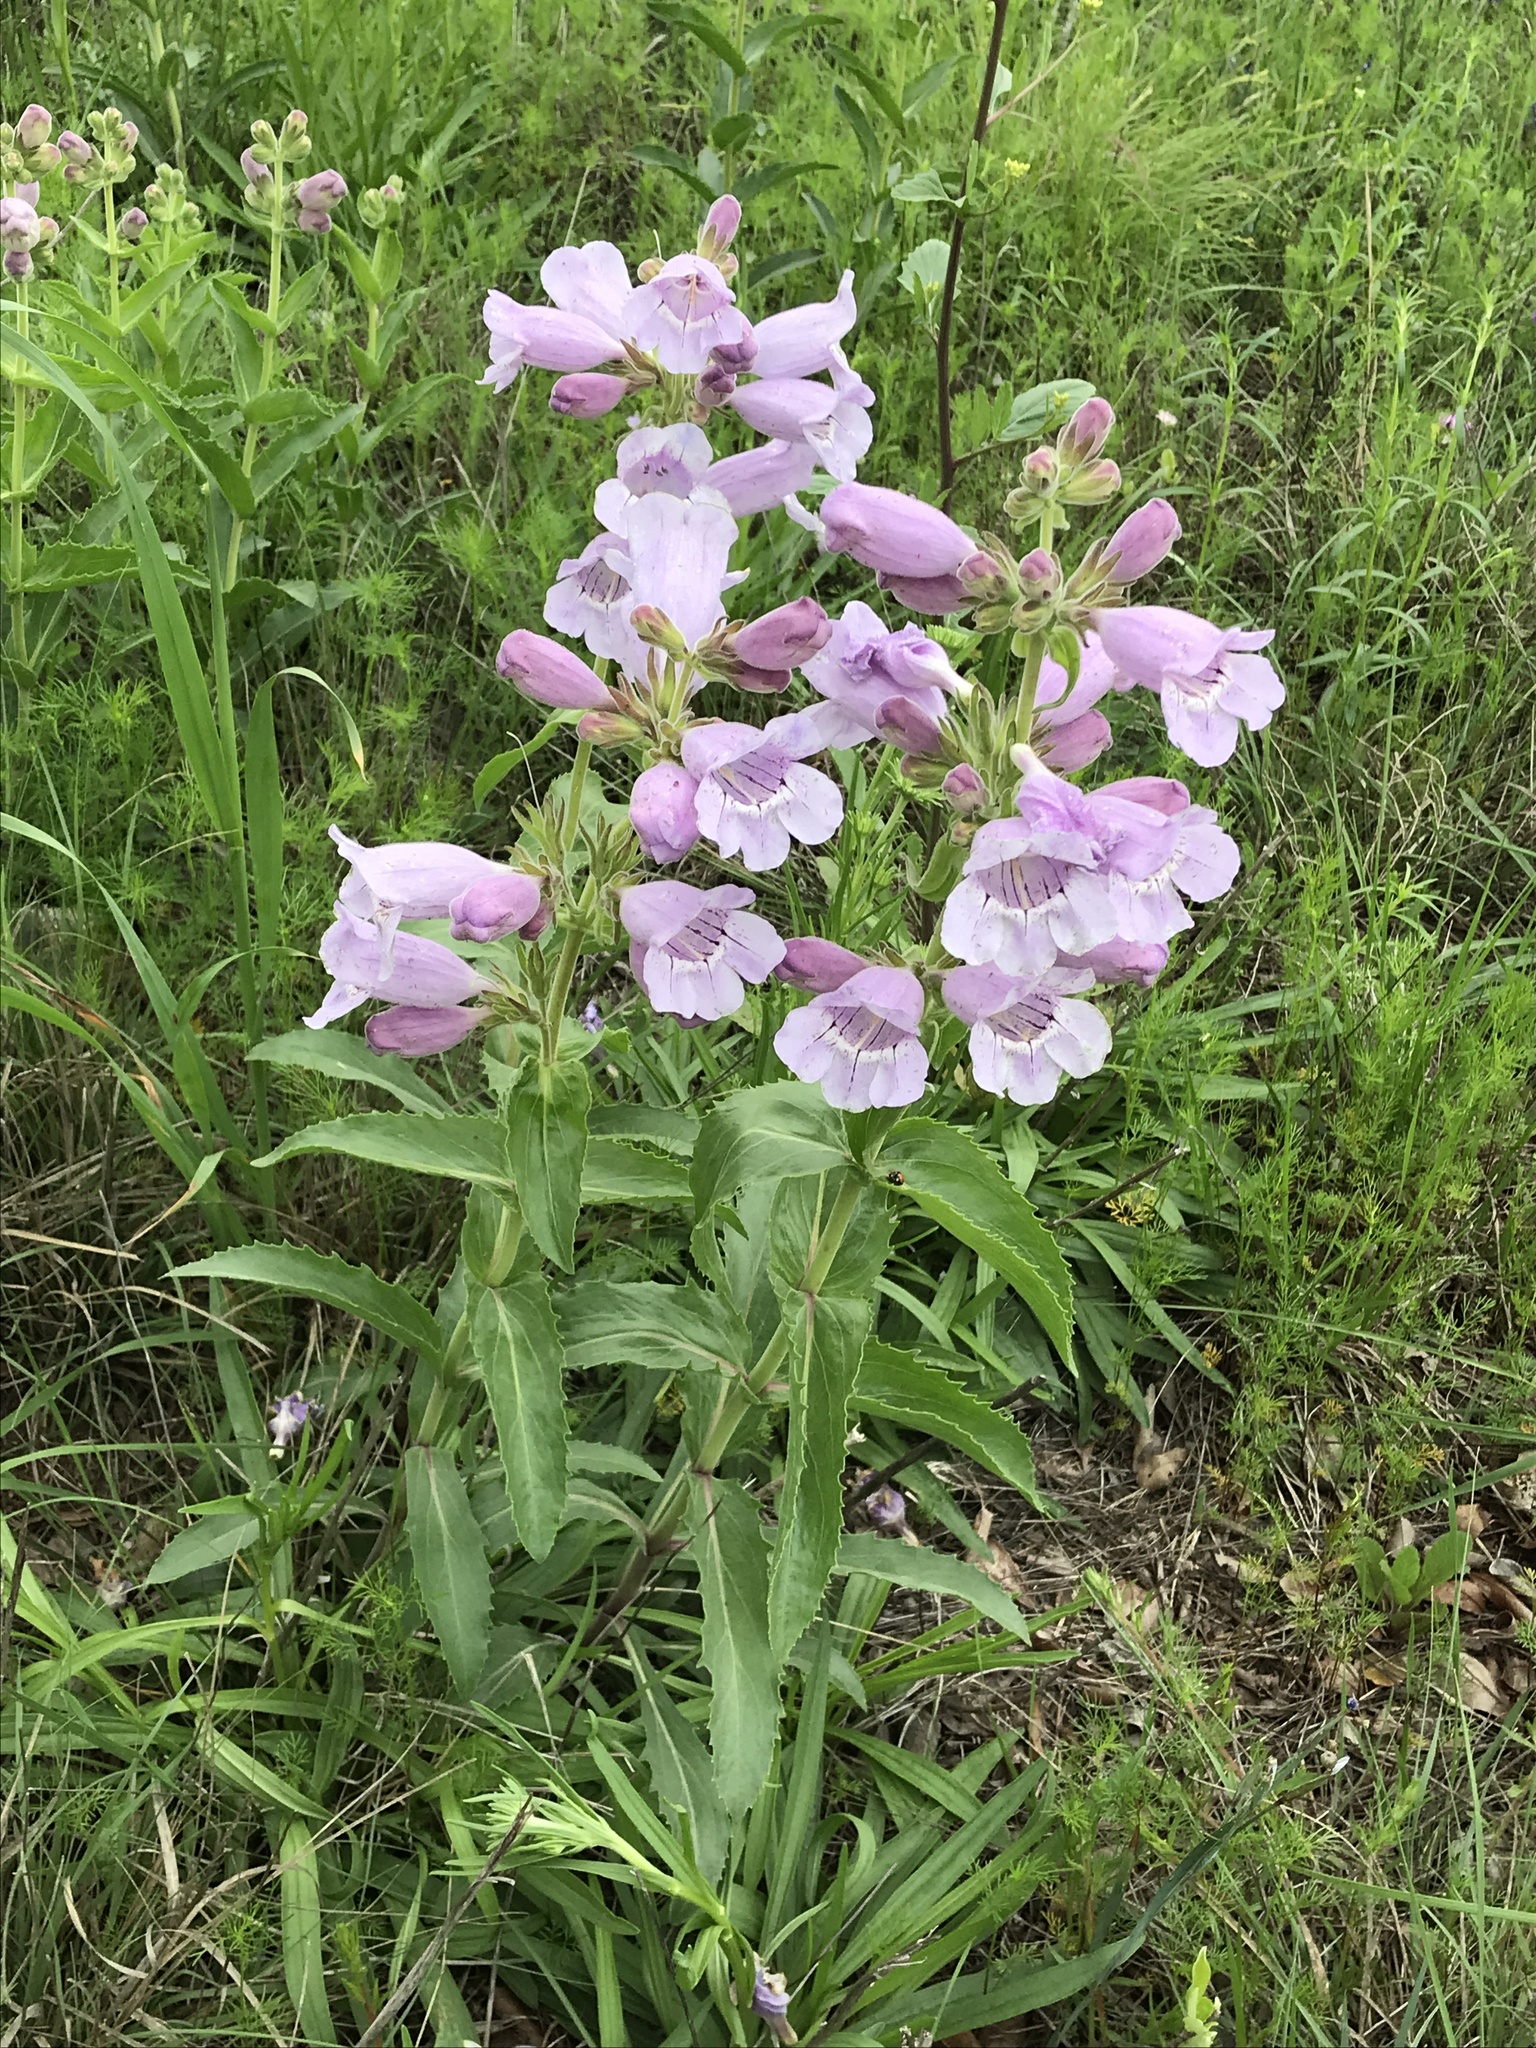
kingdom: Plantae
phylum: Tracheophyta
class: Magnoliopsida
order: Lamiales
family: Plantaginaceae
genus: Penstemon
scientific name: Penstemon cobaea
